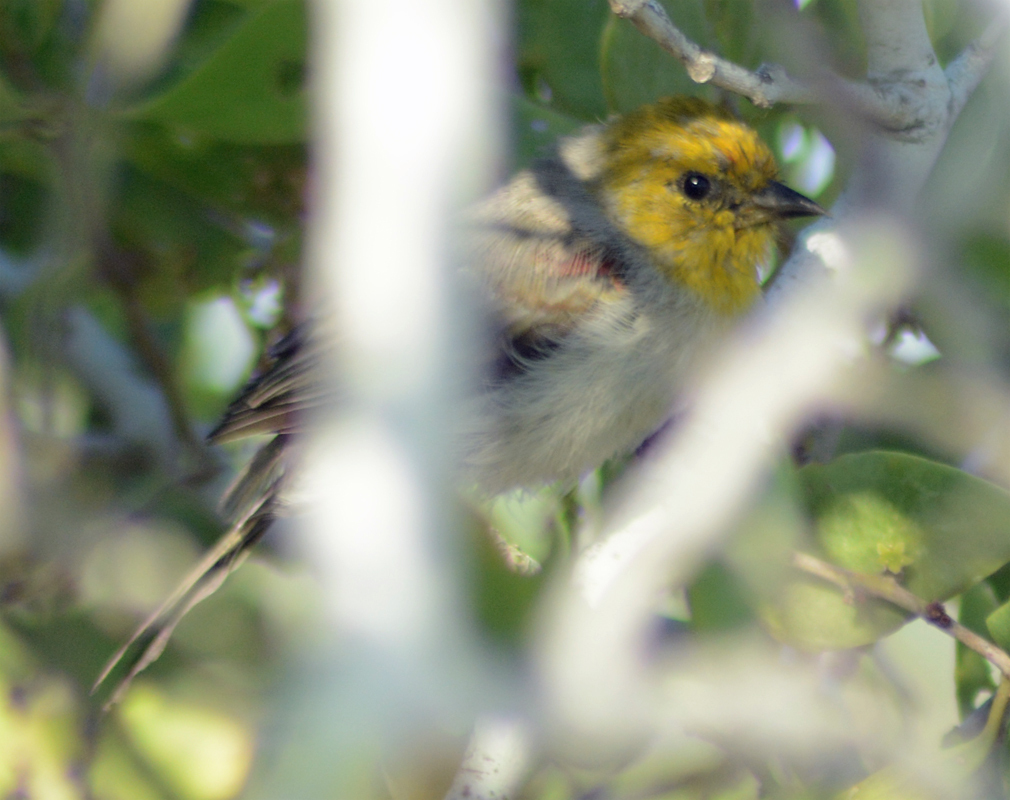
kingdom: Animalia
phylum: Chordata
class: Aves
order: Passeriformes
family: Remizidae
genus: Auriparus
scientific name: Auriparus flaviceps
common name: Verdin
